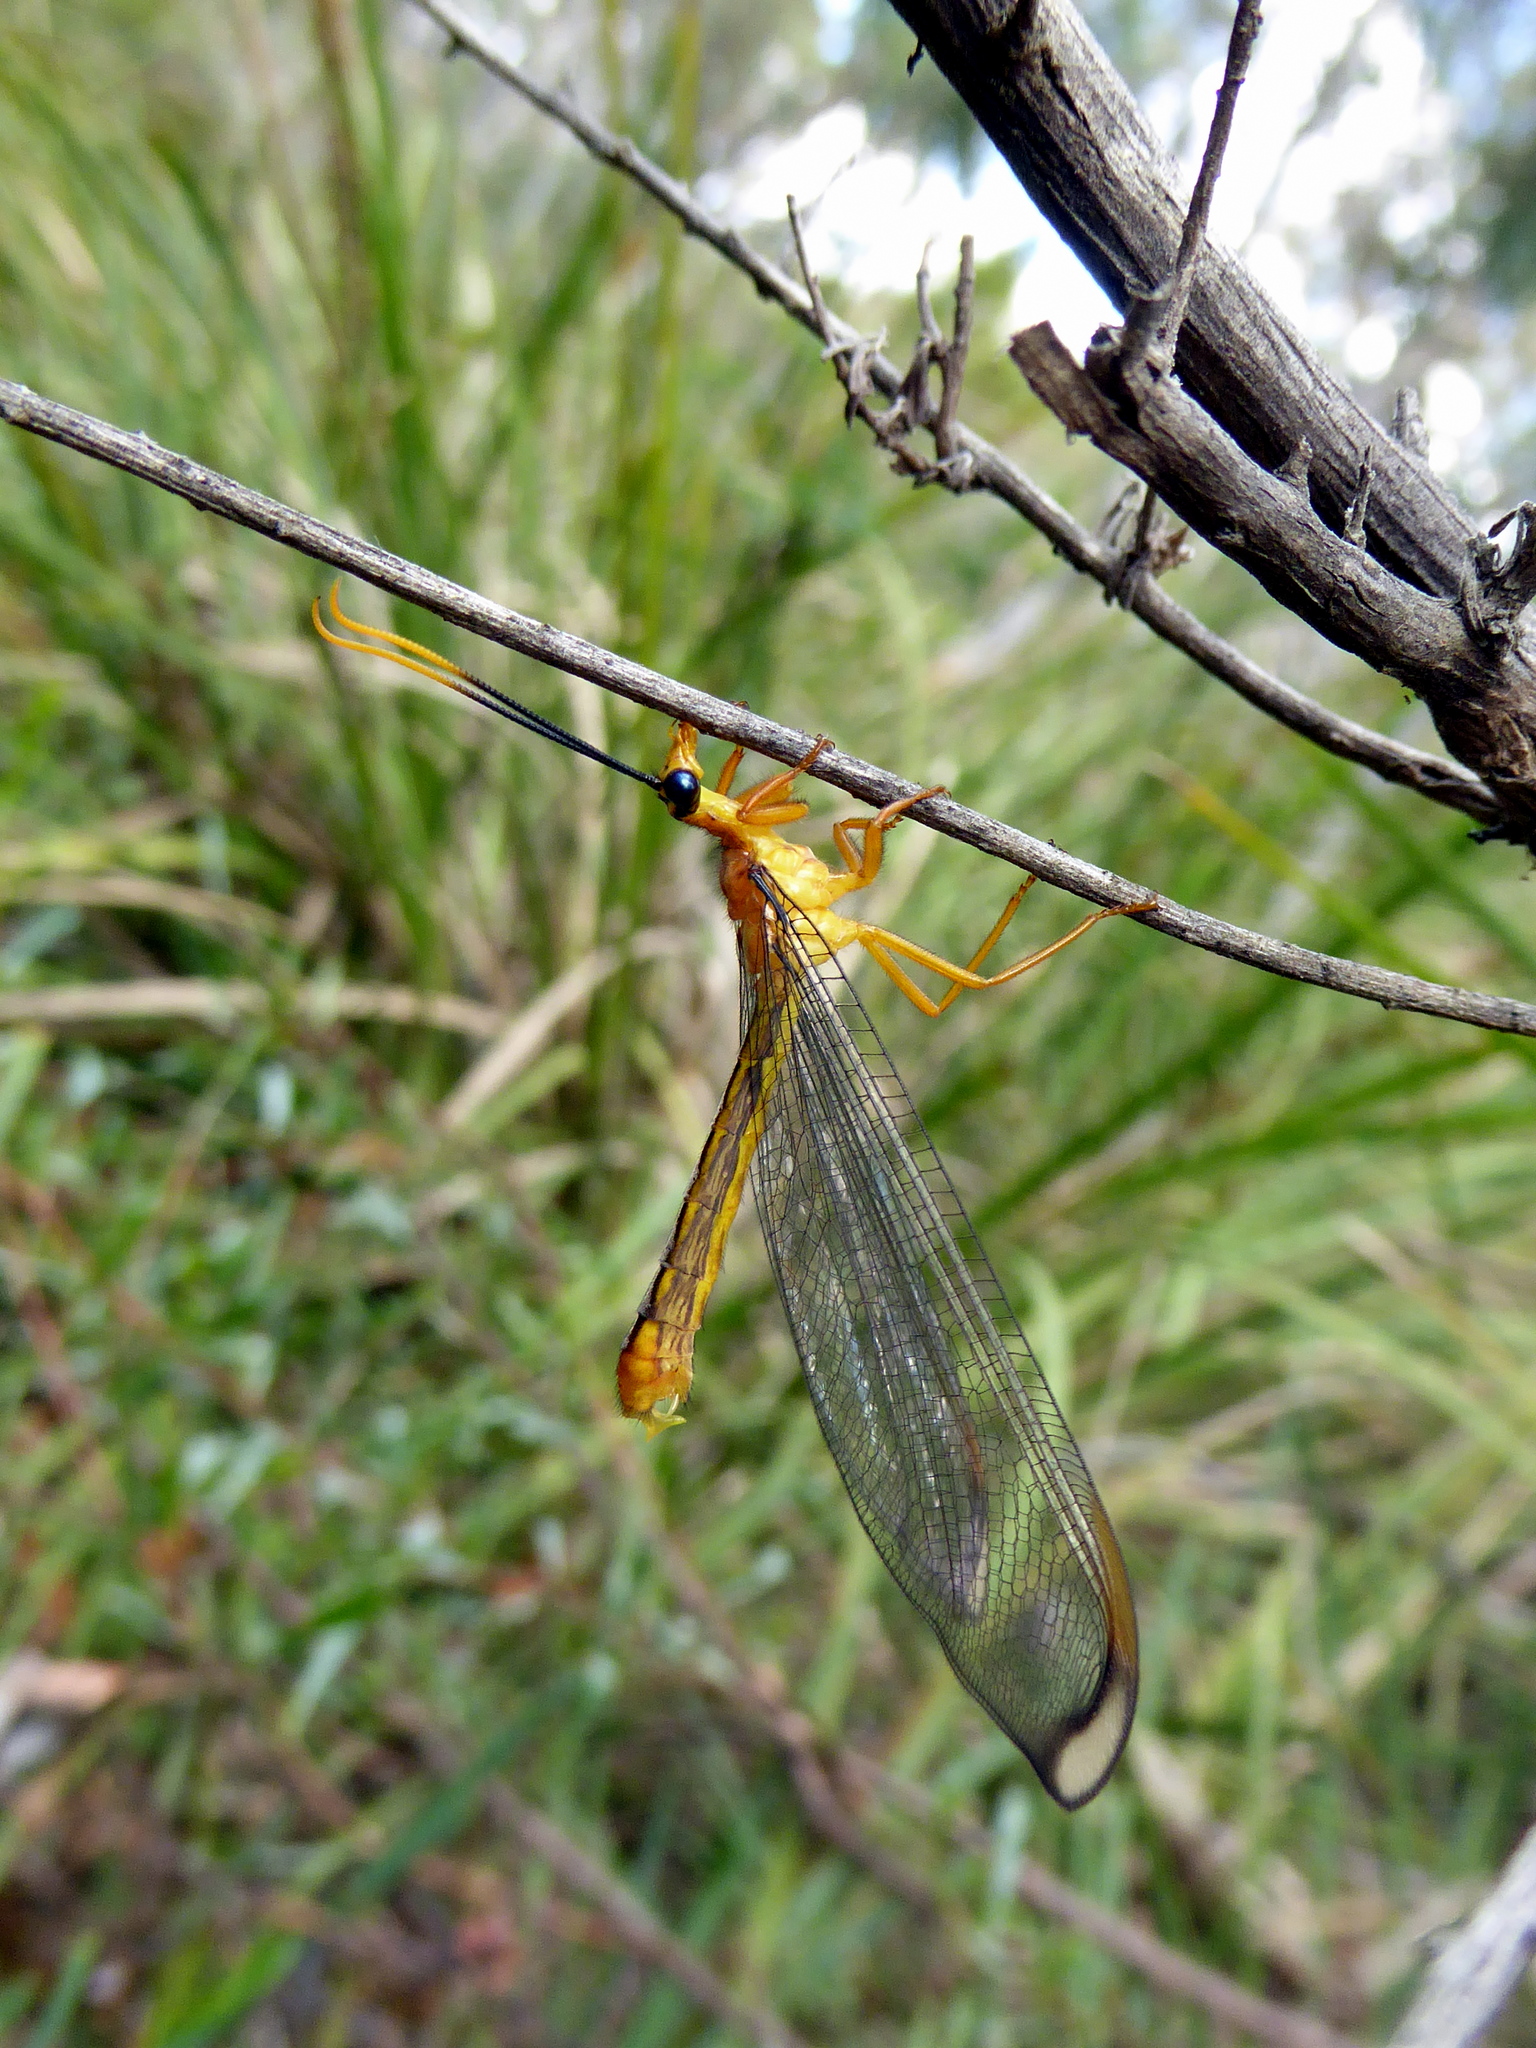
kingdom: Animalia
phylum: Arthropoda
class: Insecta
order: Neuroptera
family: Nymphidae
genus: Nymphes
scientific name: Nymphes myrmeleonoides
